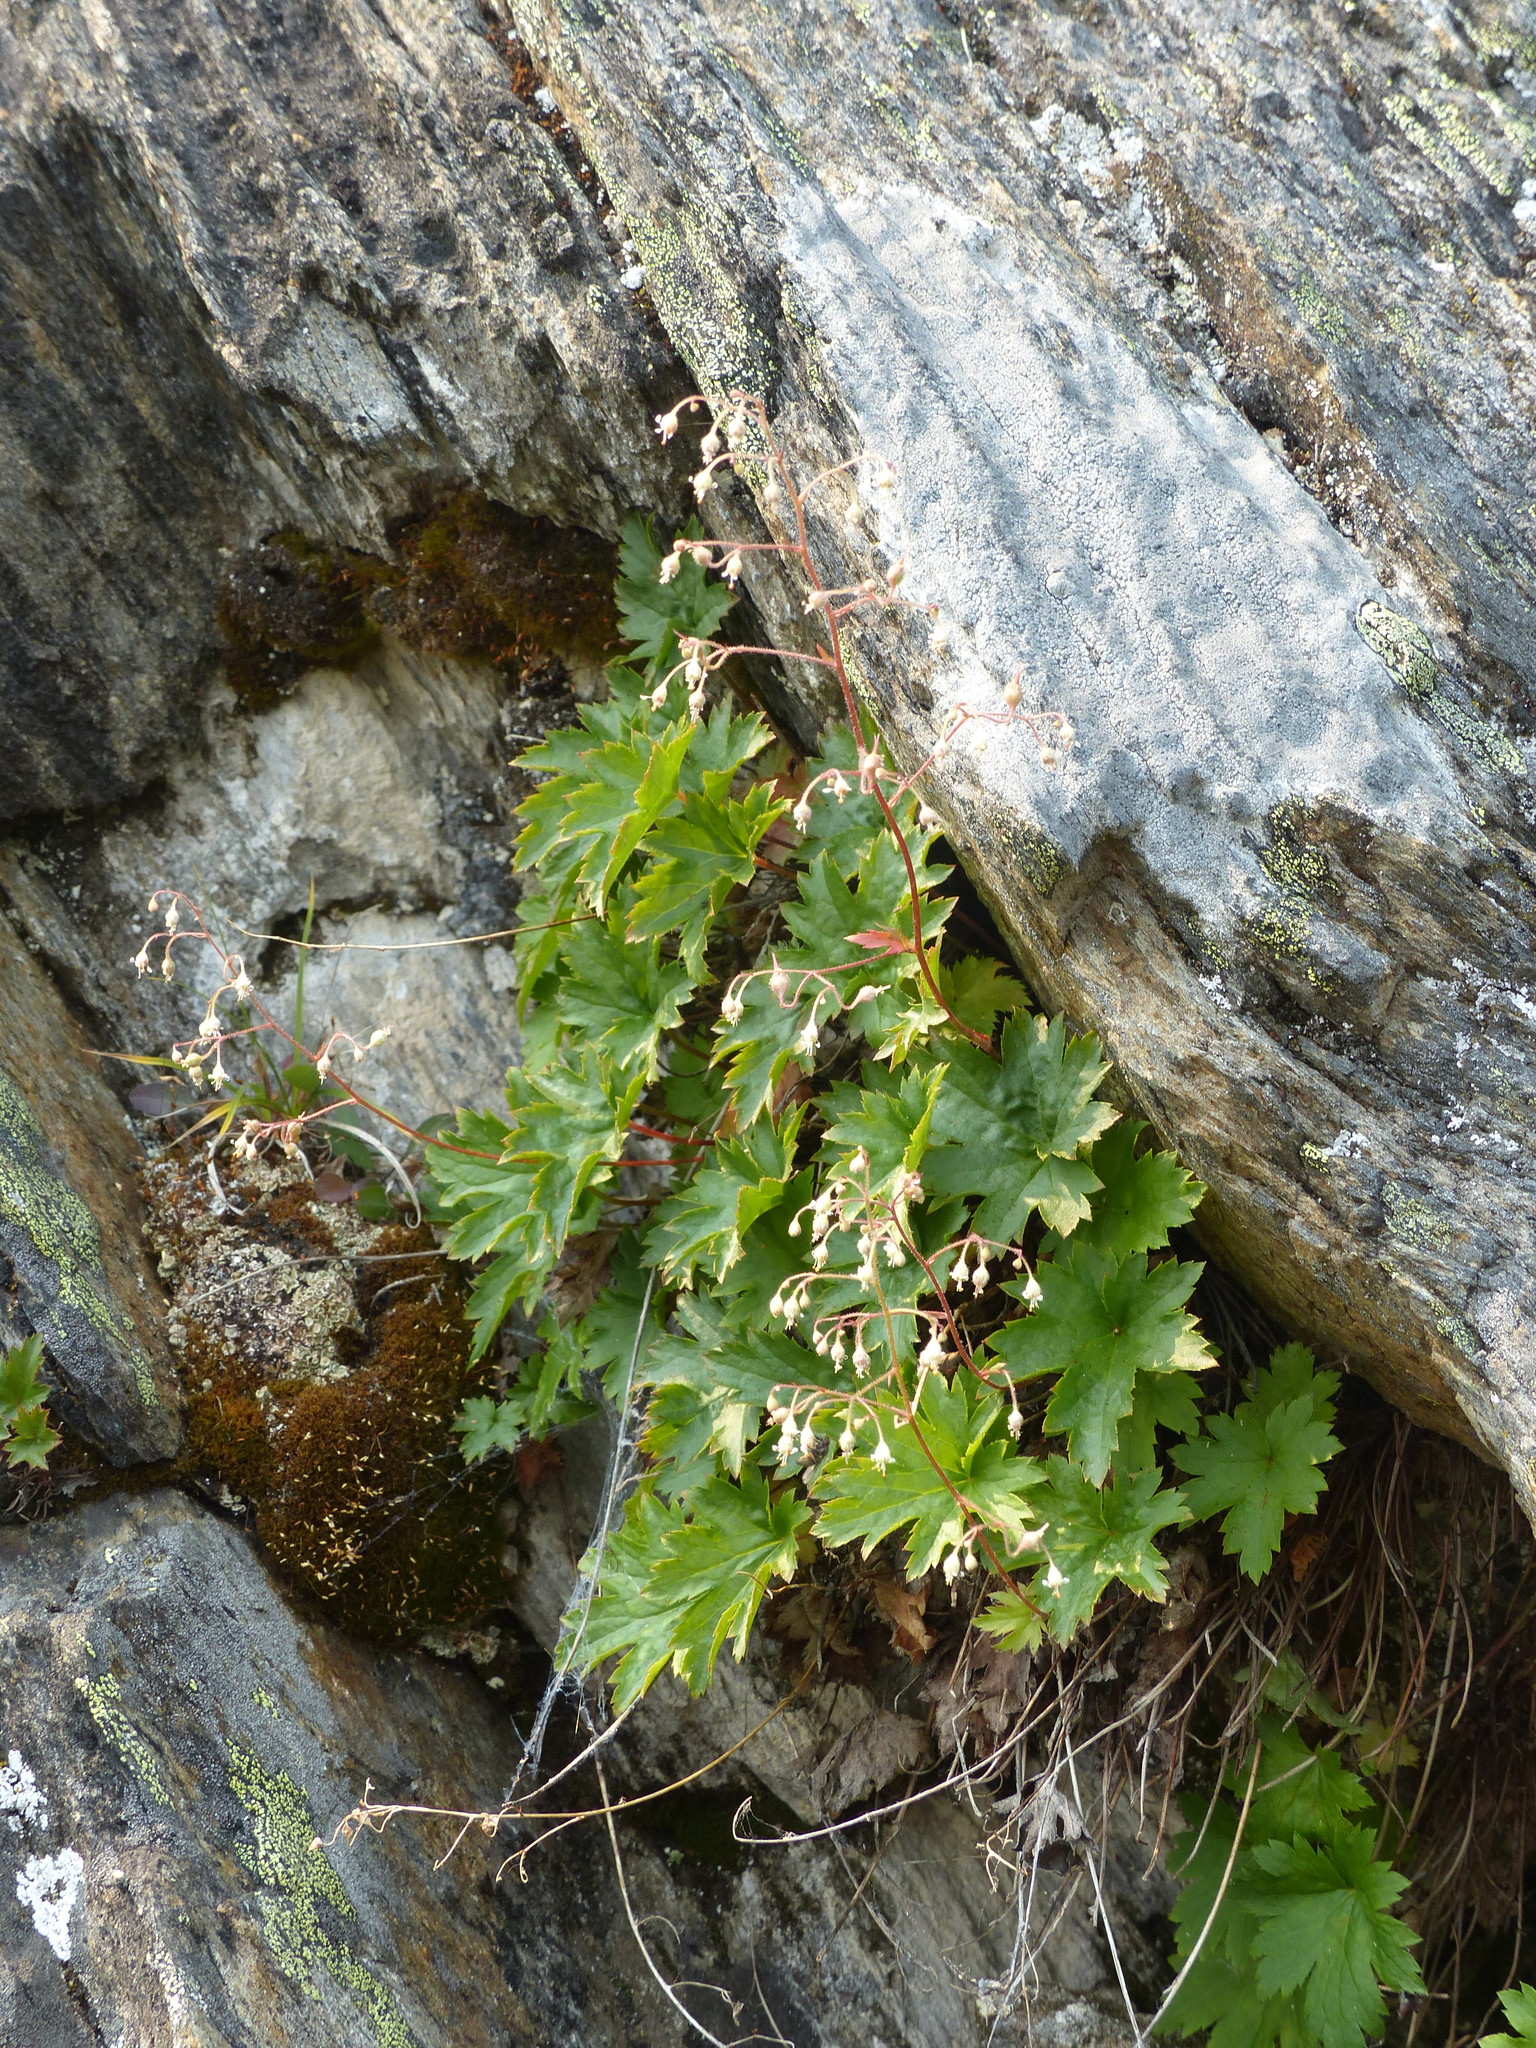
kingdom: Plantae
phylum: Tracheophyta
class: Magnoliopsida
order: Saxifragales
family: Saxifragaceae
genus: Heuchera
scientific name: Heuchera glabra
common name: Alpine alumroot
